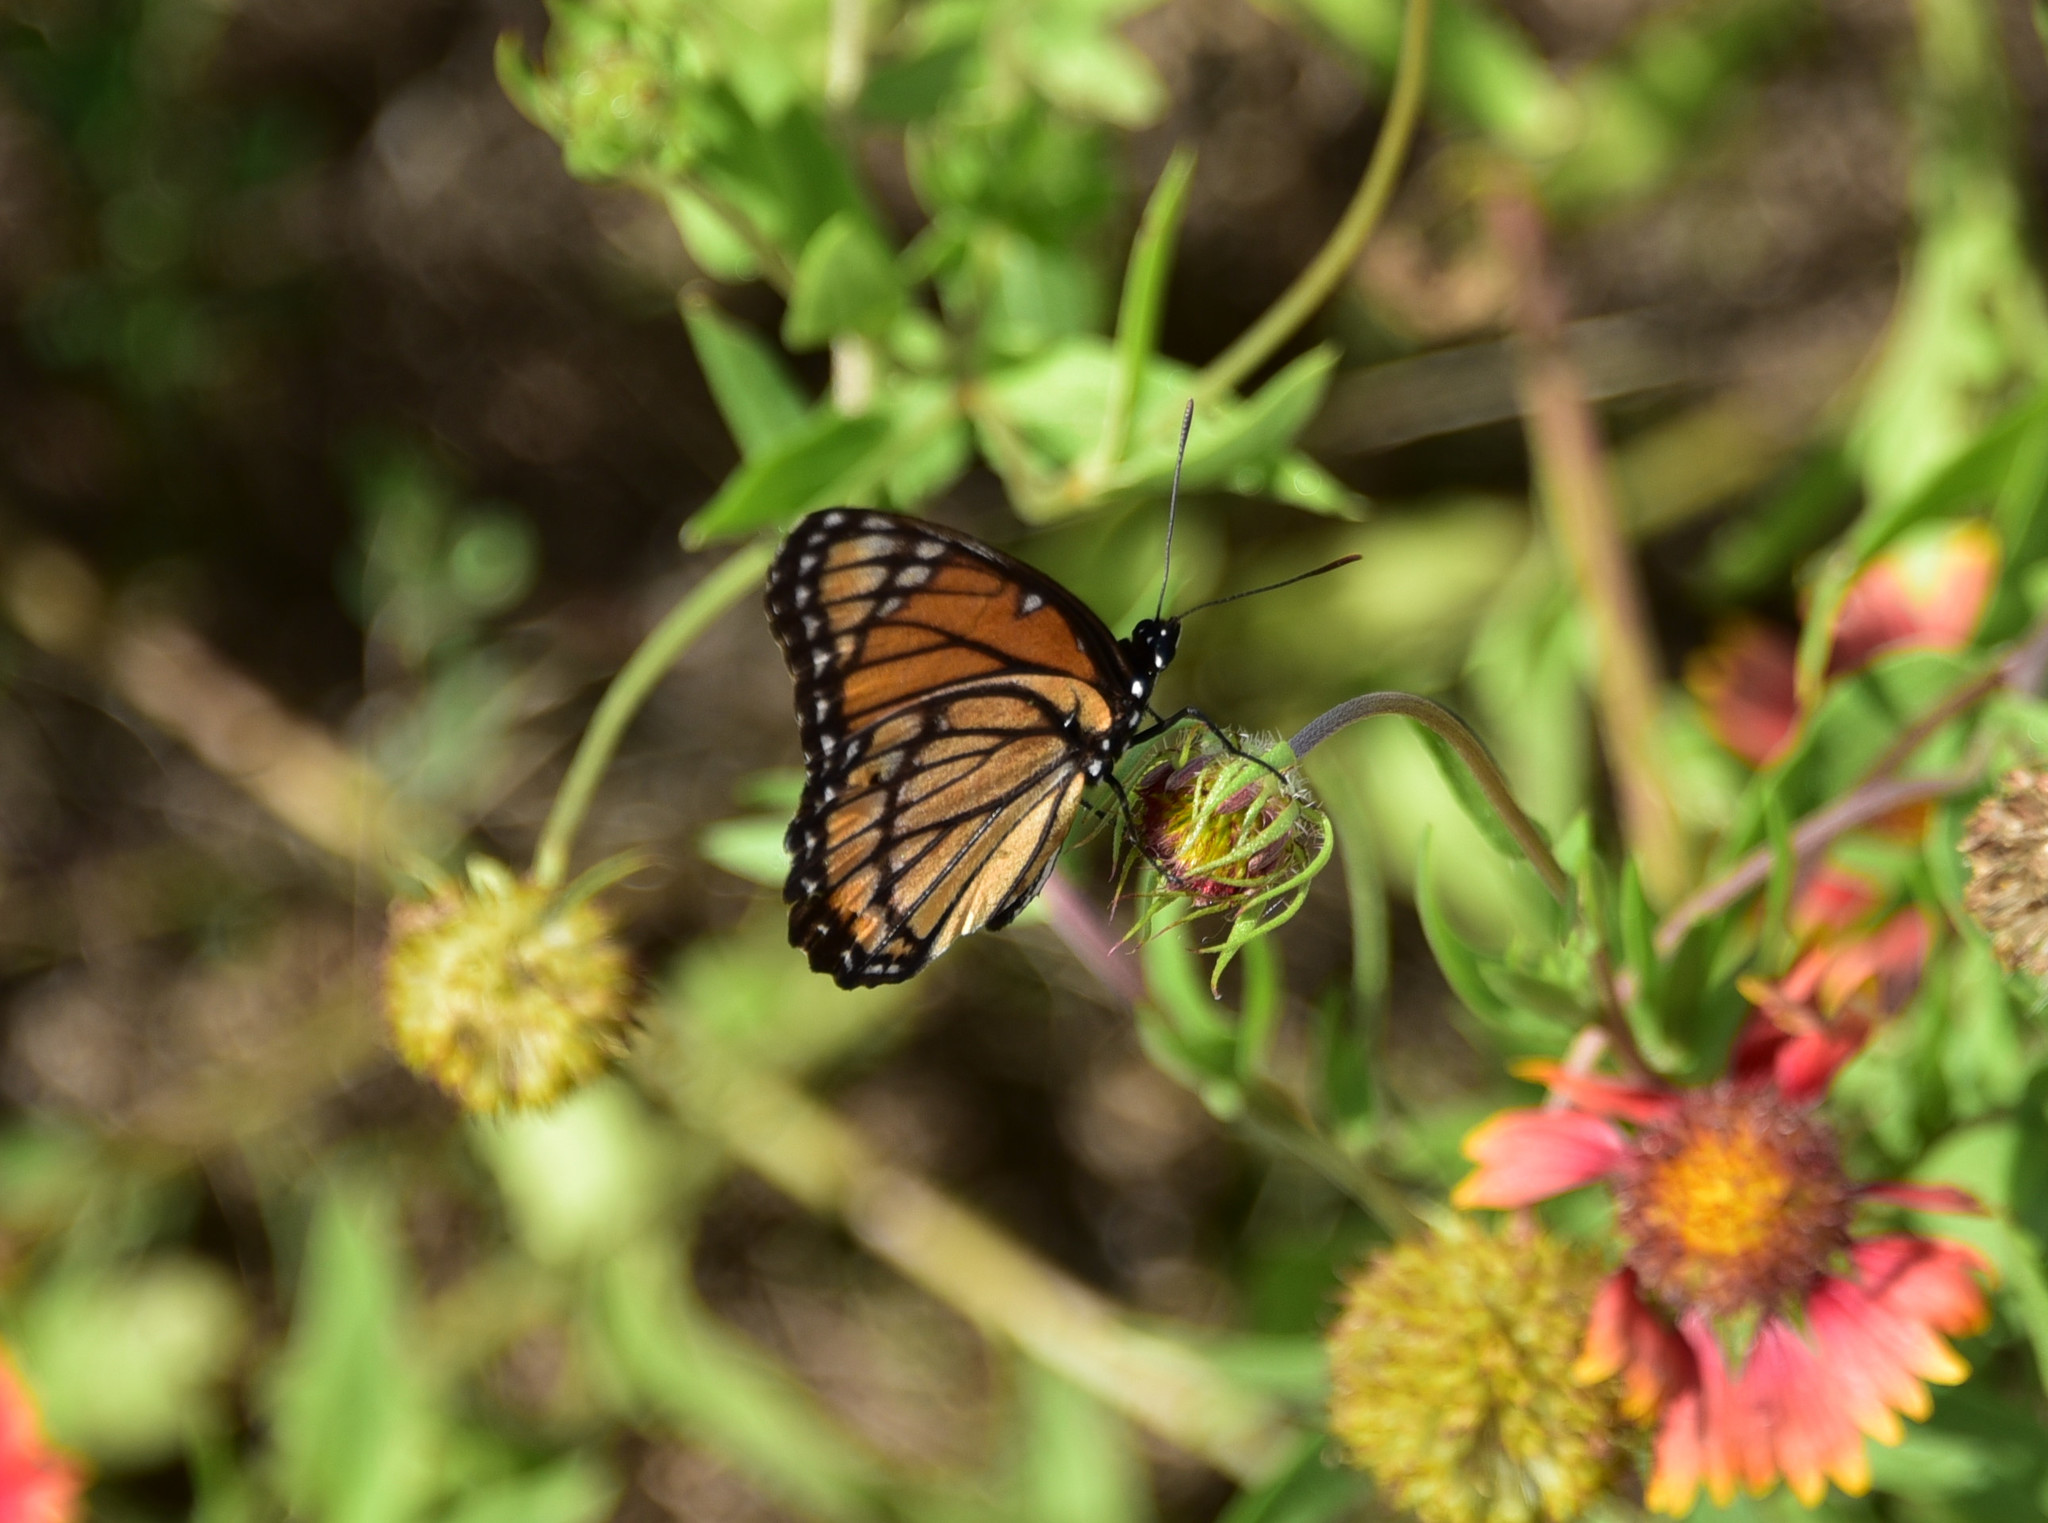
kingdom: Animalia
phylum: Arthropoda
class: Insecta
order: Lepidoptera
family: Nymphalidae
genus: Limenitis
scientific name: Limenitis archippus
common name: Viceroy
